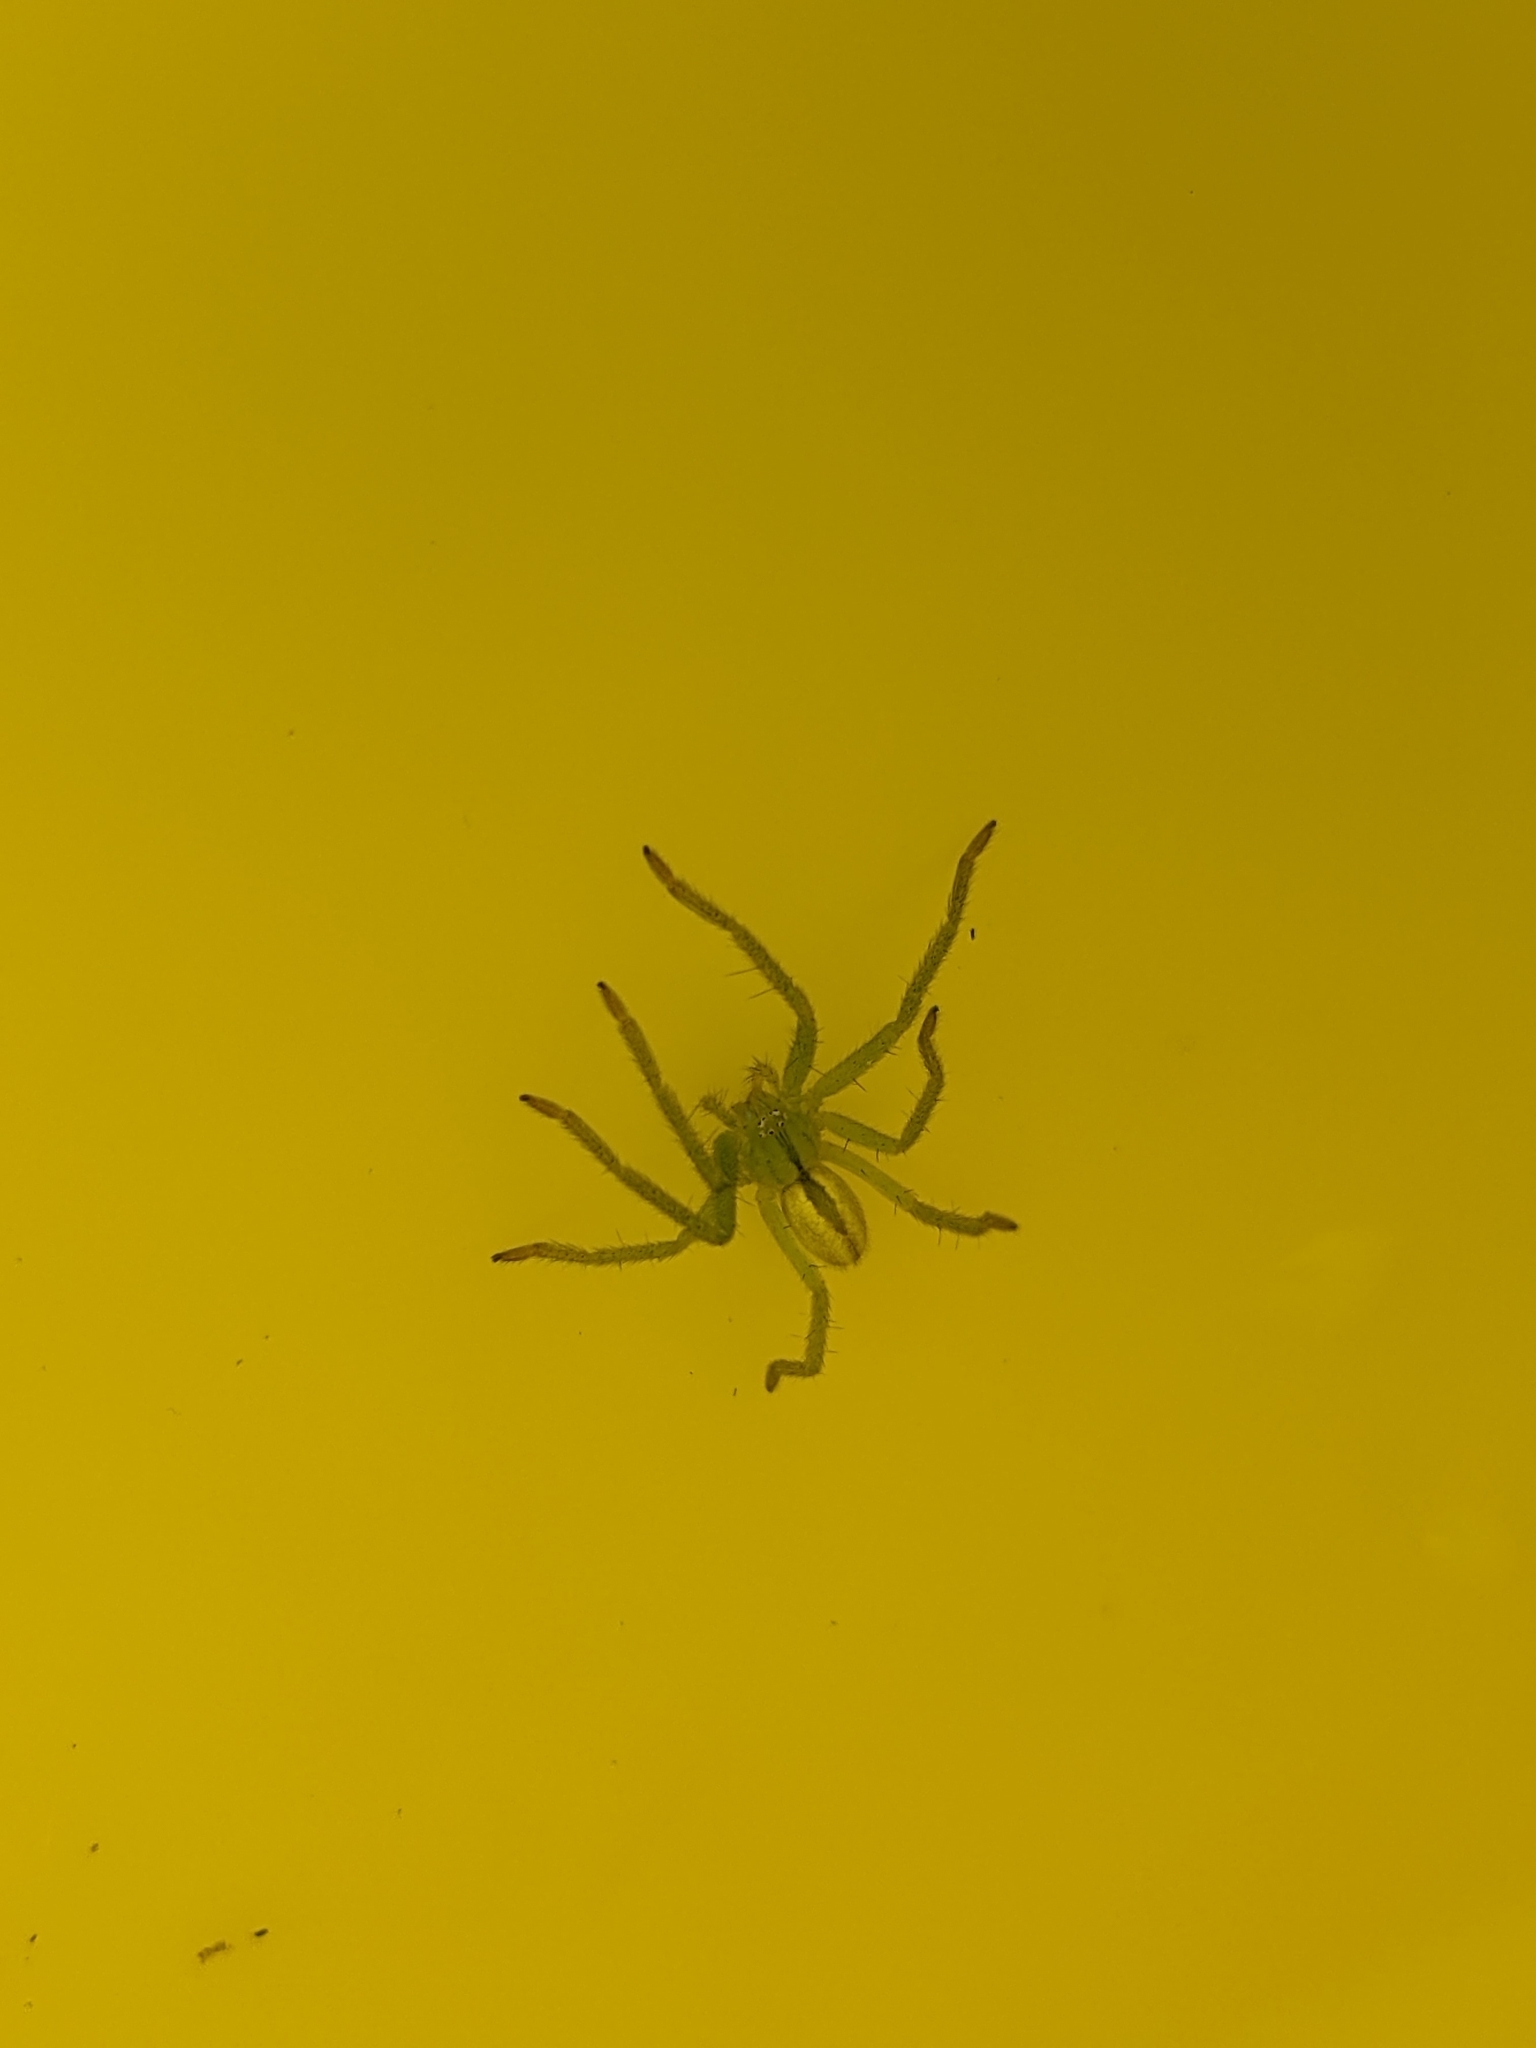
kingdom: Animalia
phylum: Arthropoda
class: Arachnida
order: Araneae
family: Sparassidae
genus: Micrommata
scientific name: Micrommata virescens
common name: Green spider
